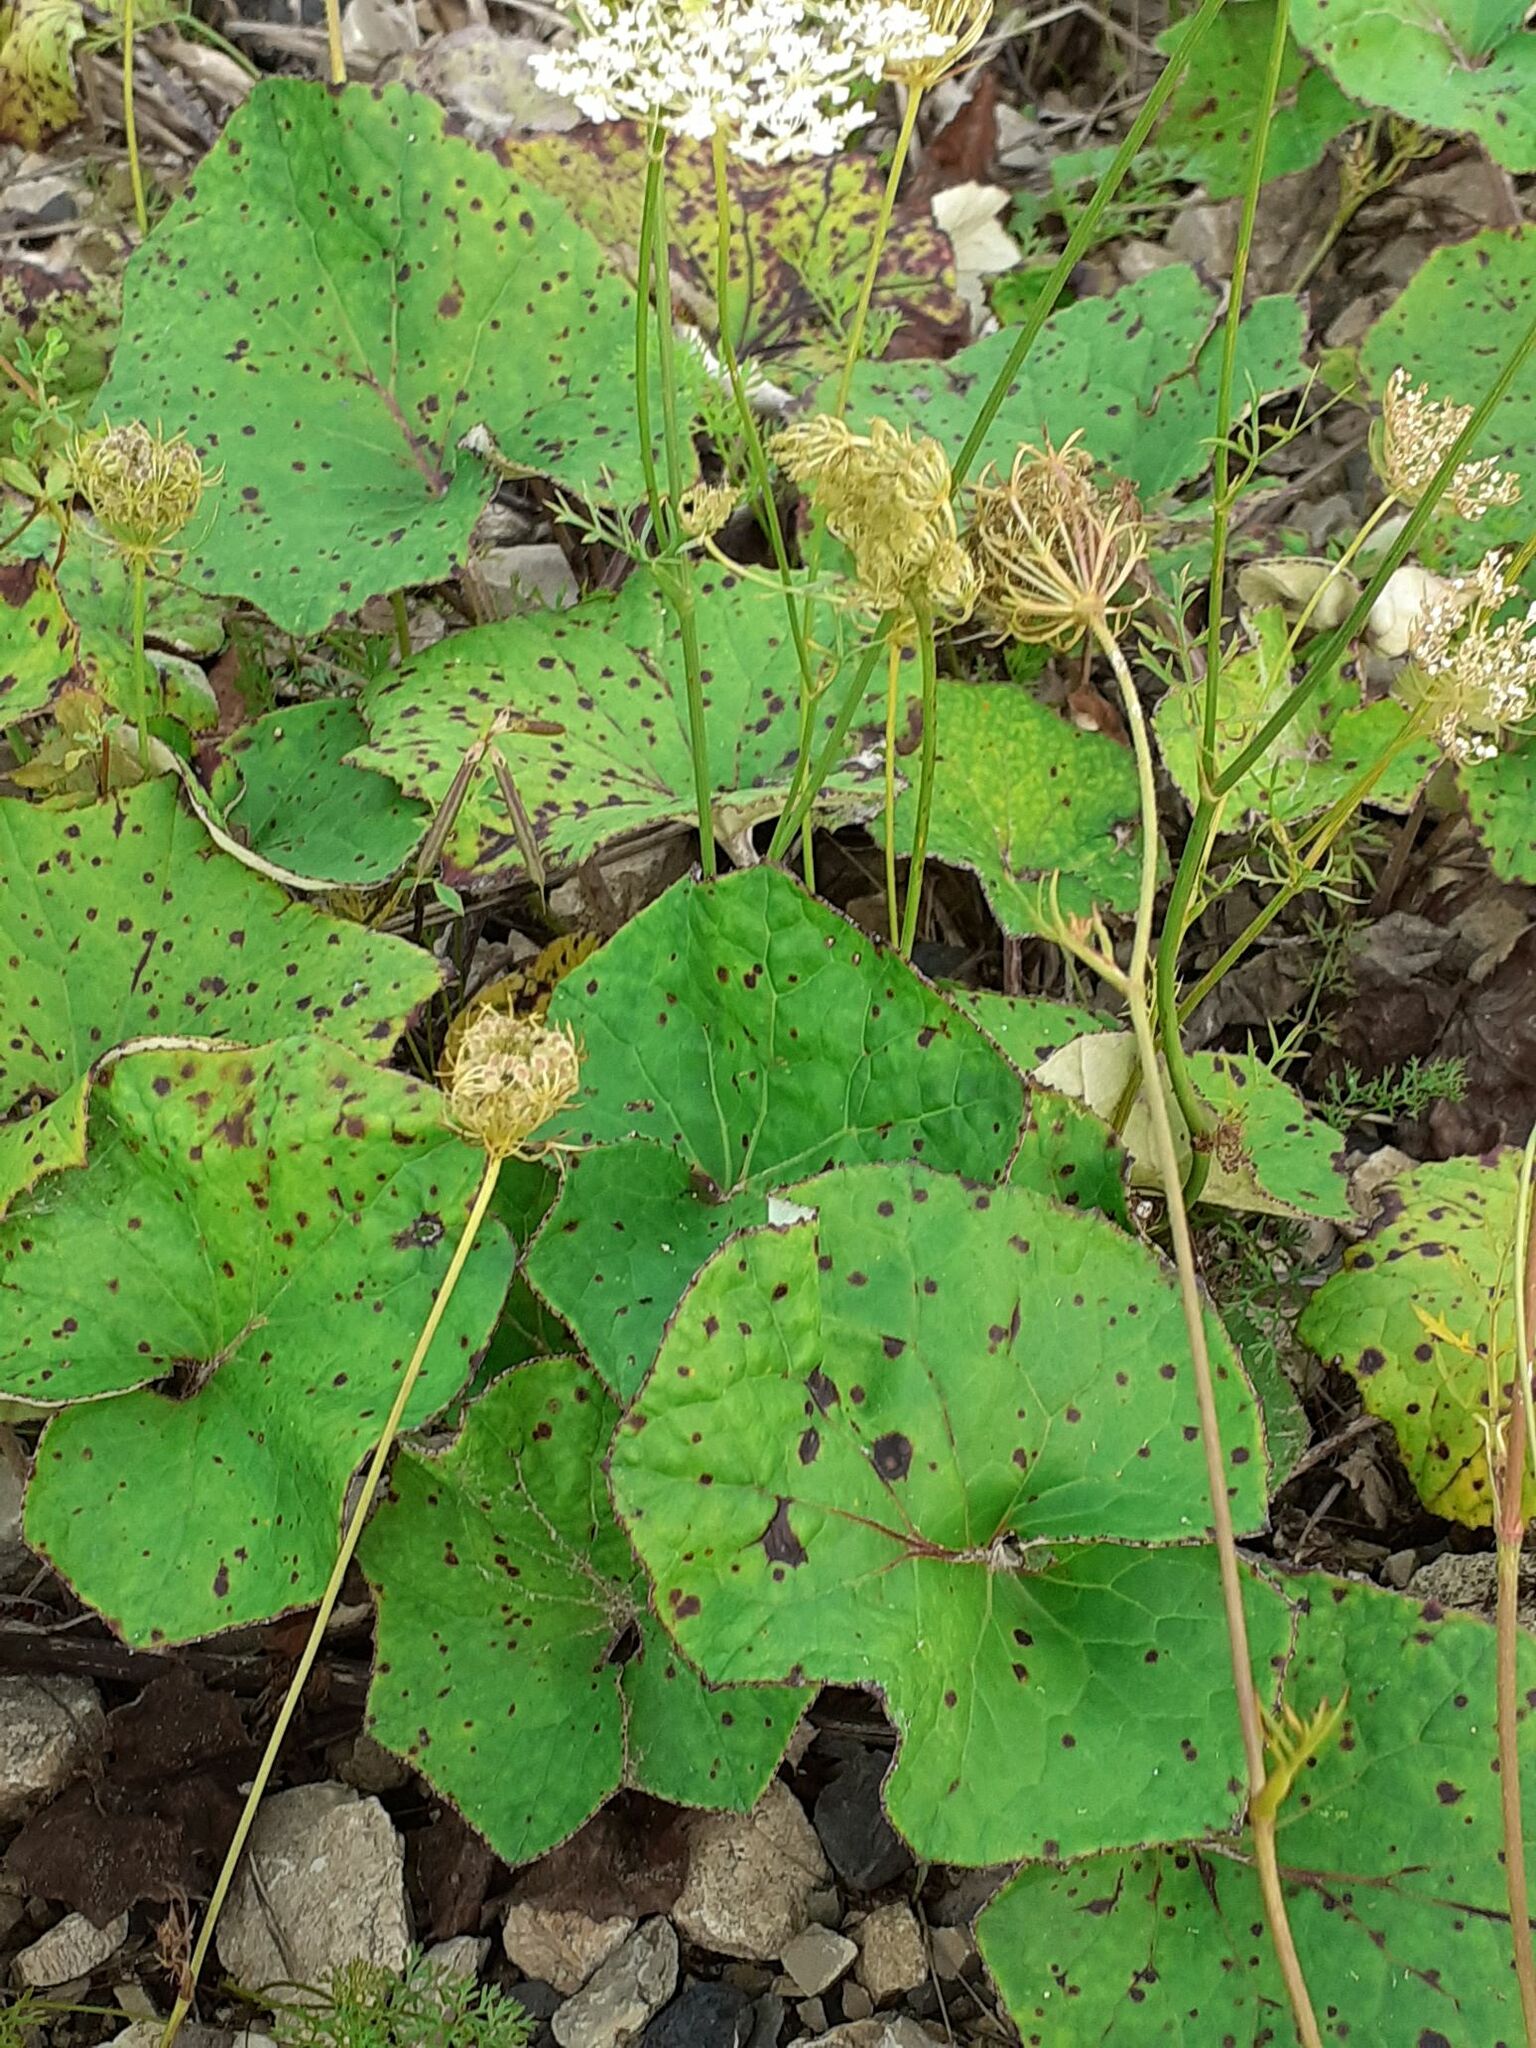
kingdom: Plantae
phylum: Tracheophyta
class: Magnoliopsida
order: Asterales
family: Asteraceae
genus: Tussilago
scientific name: Tussilago farfara
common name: Coltsfoot
